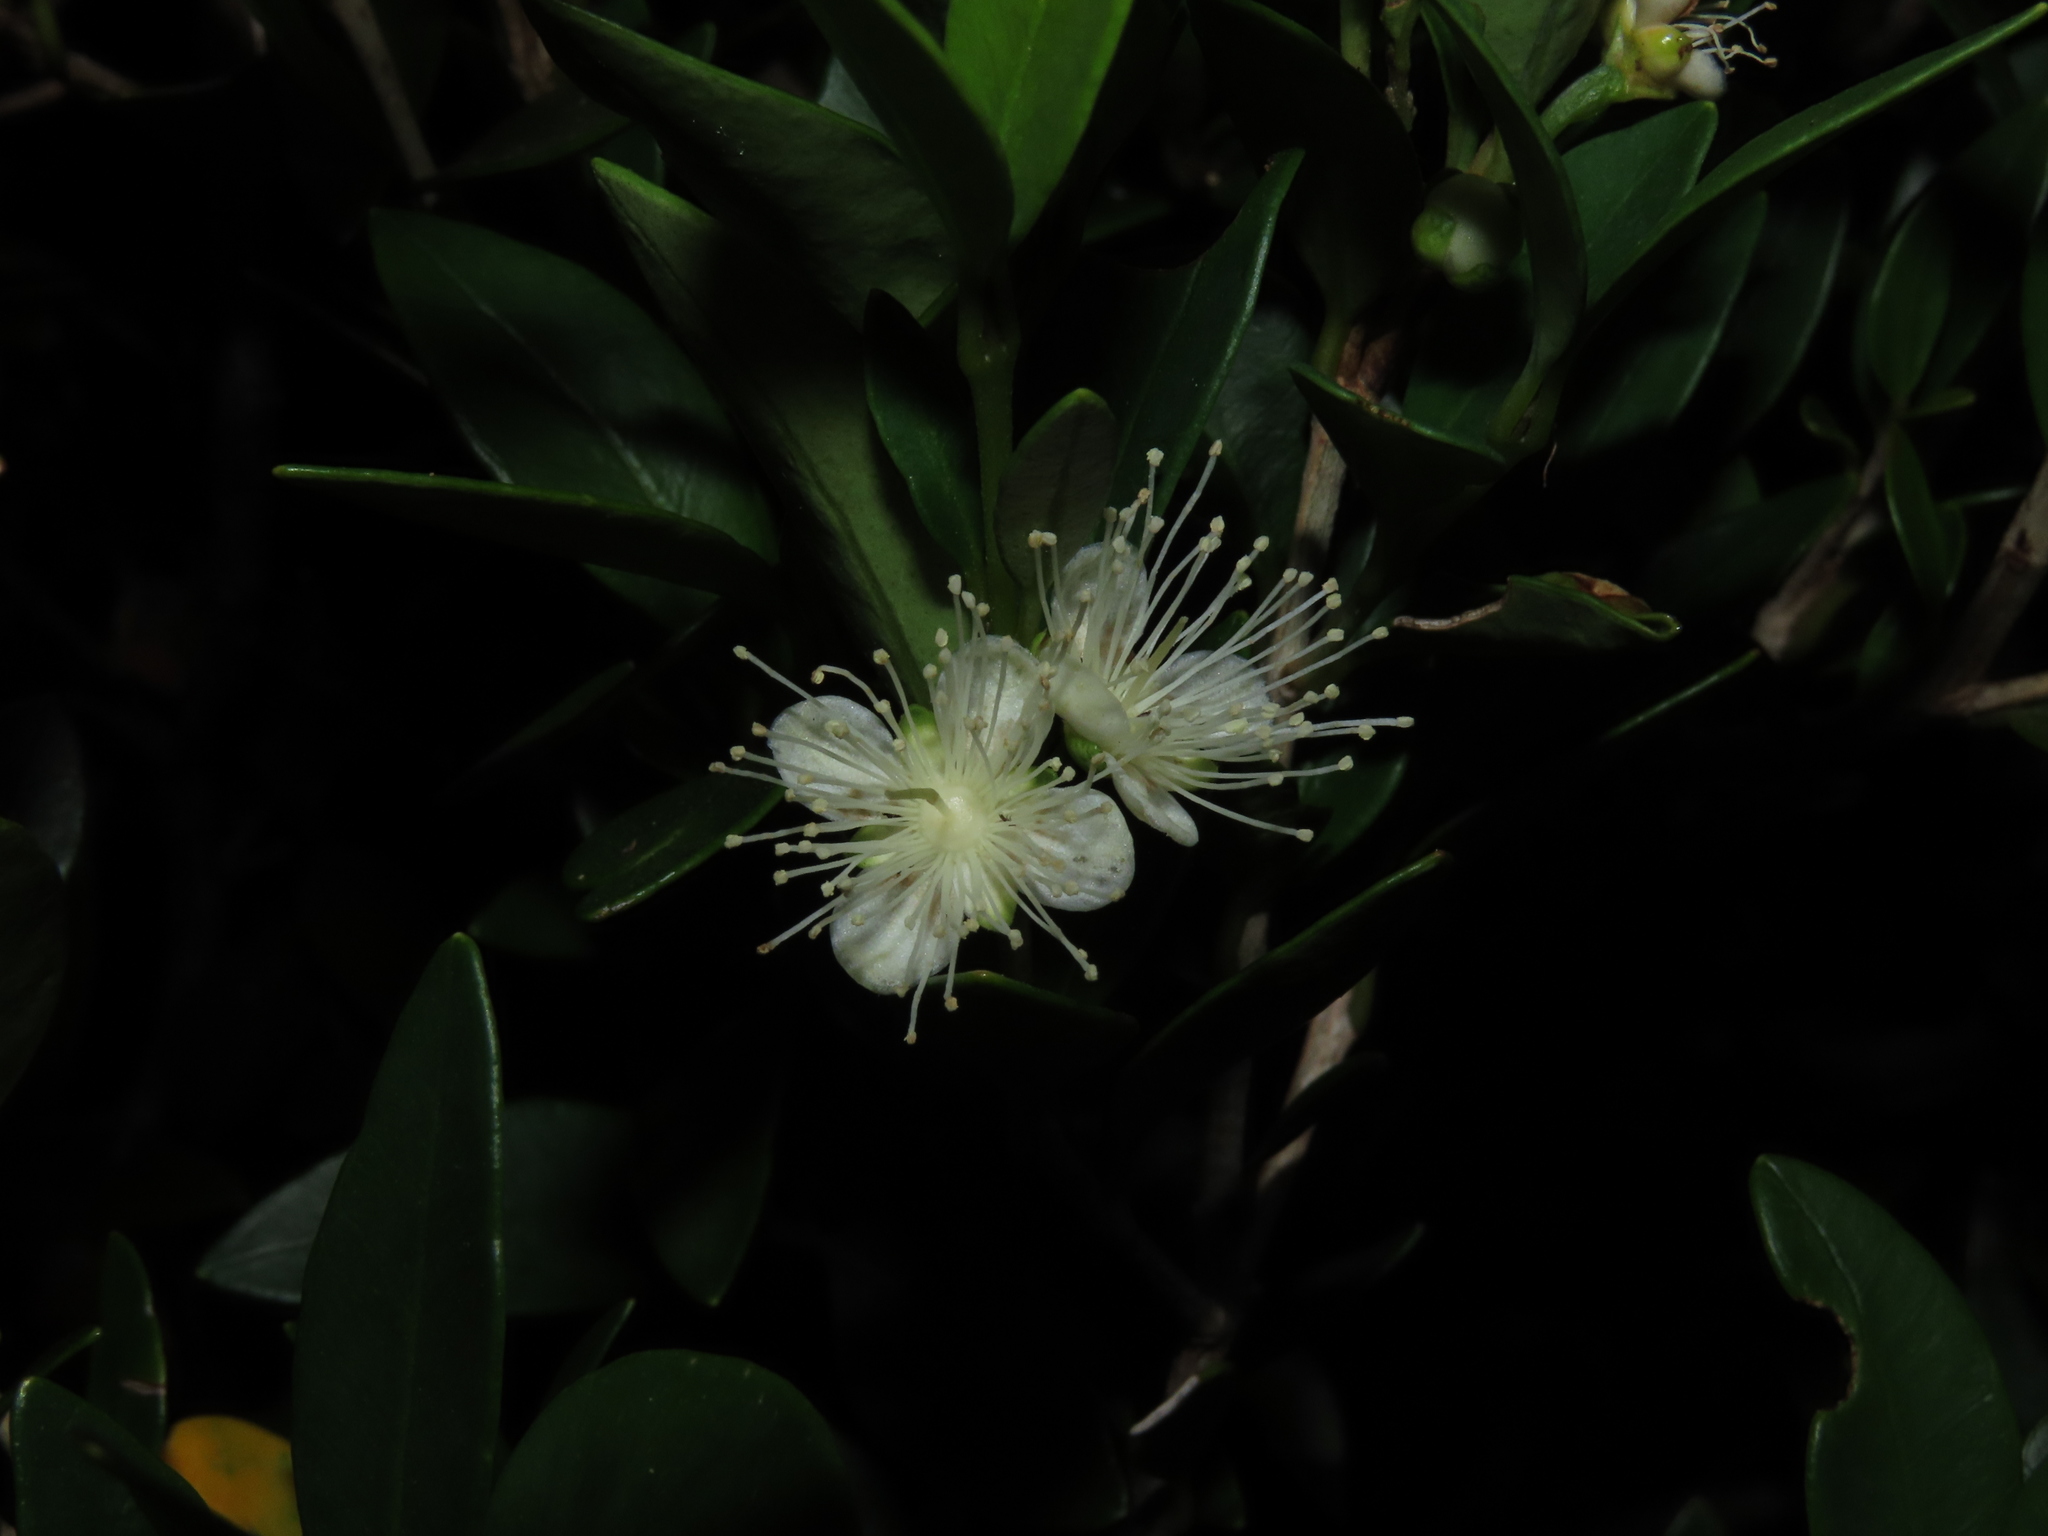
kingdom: Plantae
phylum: Tracheophyta
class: Magnoliopsida
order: Myrtales
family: Myrtaceae
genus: Myrceugenia
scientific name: Myrceugenia chrysocarpa
